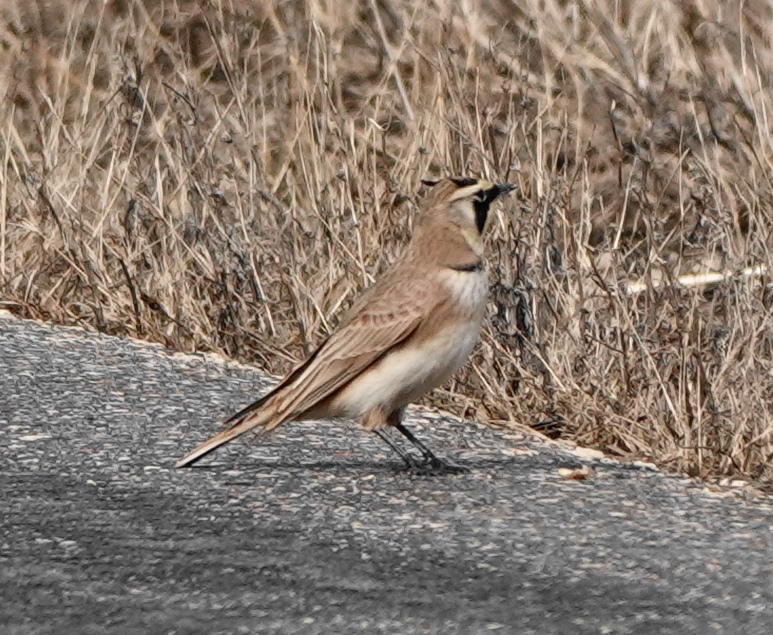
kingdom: Animalia
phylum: Chordata
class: Aves
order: Passeriformes
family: Alaudidae
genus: Eremophila
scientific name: Eremophila alpestris
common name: Horned lark
